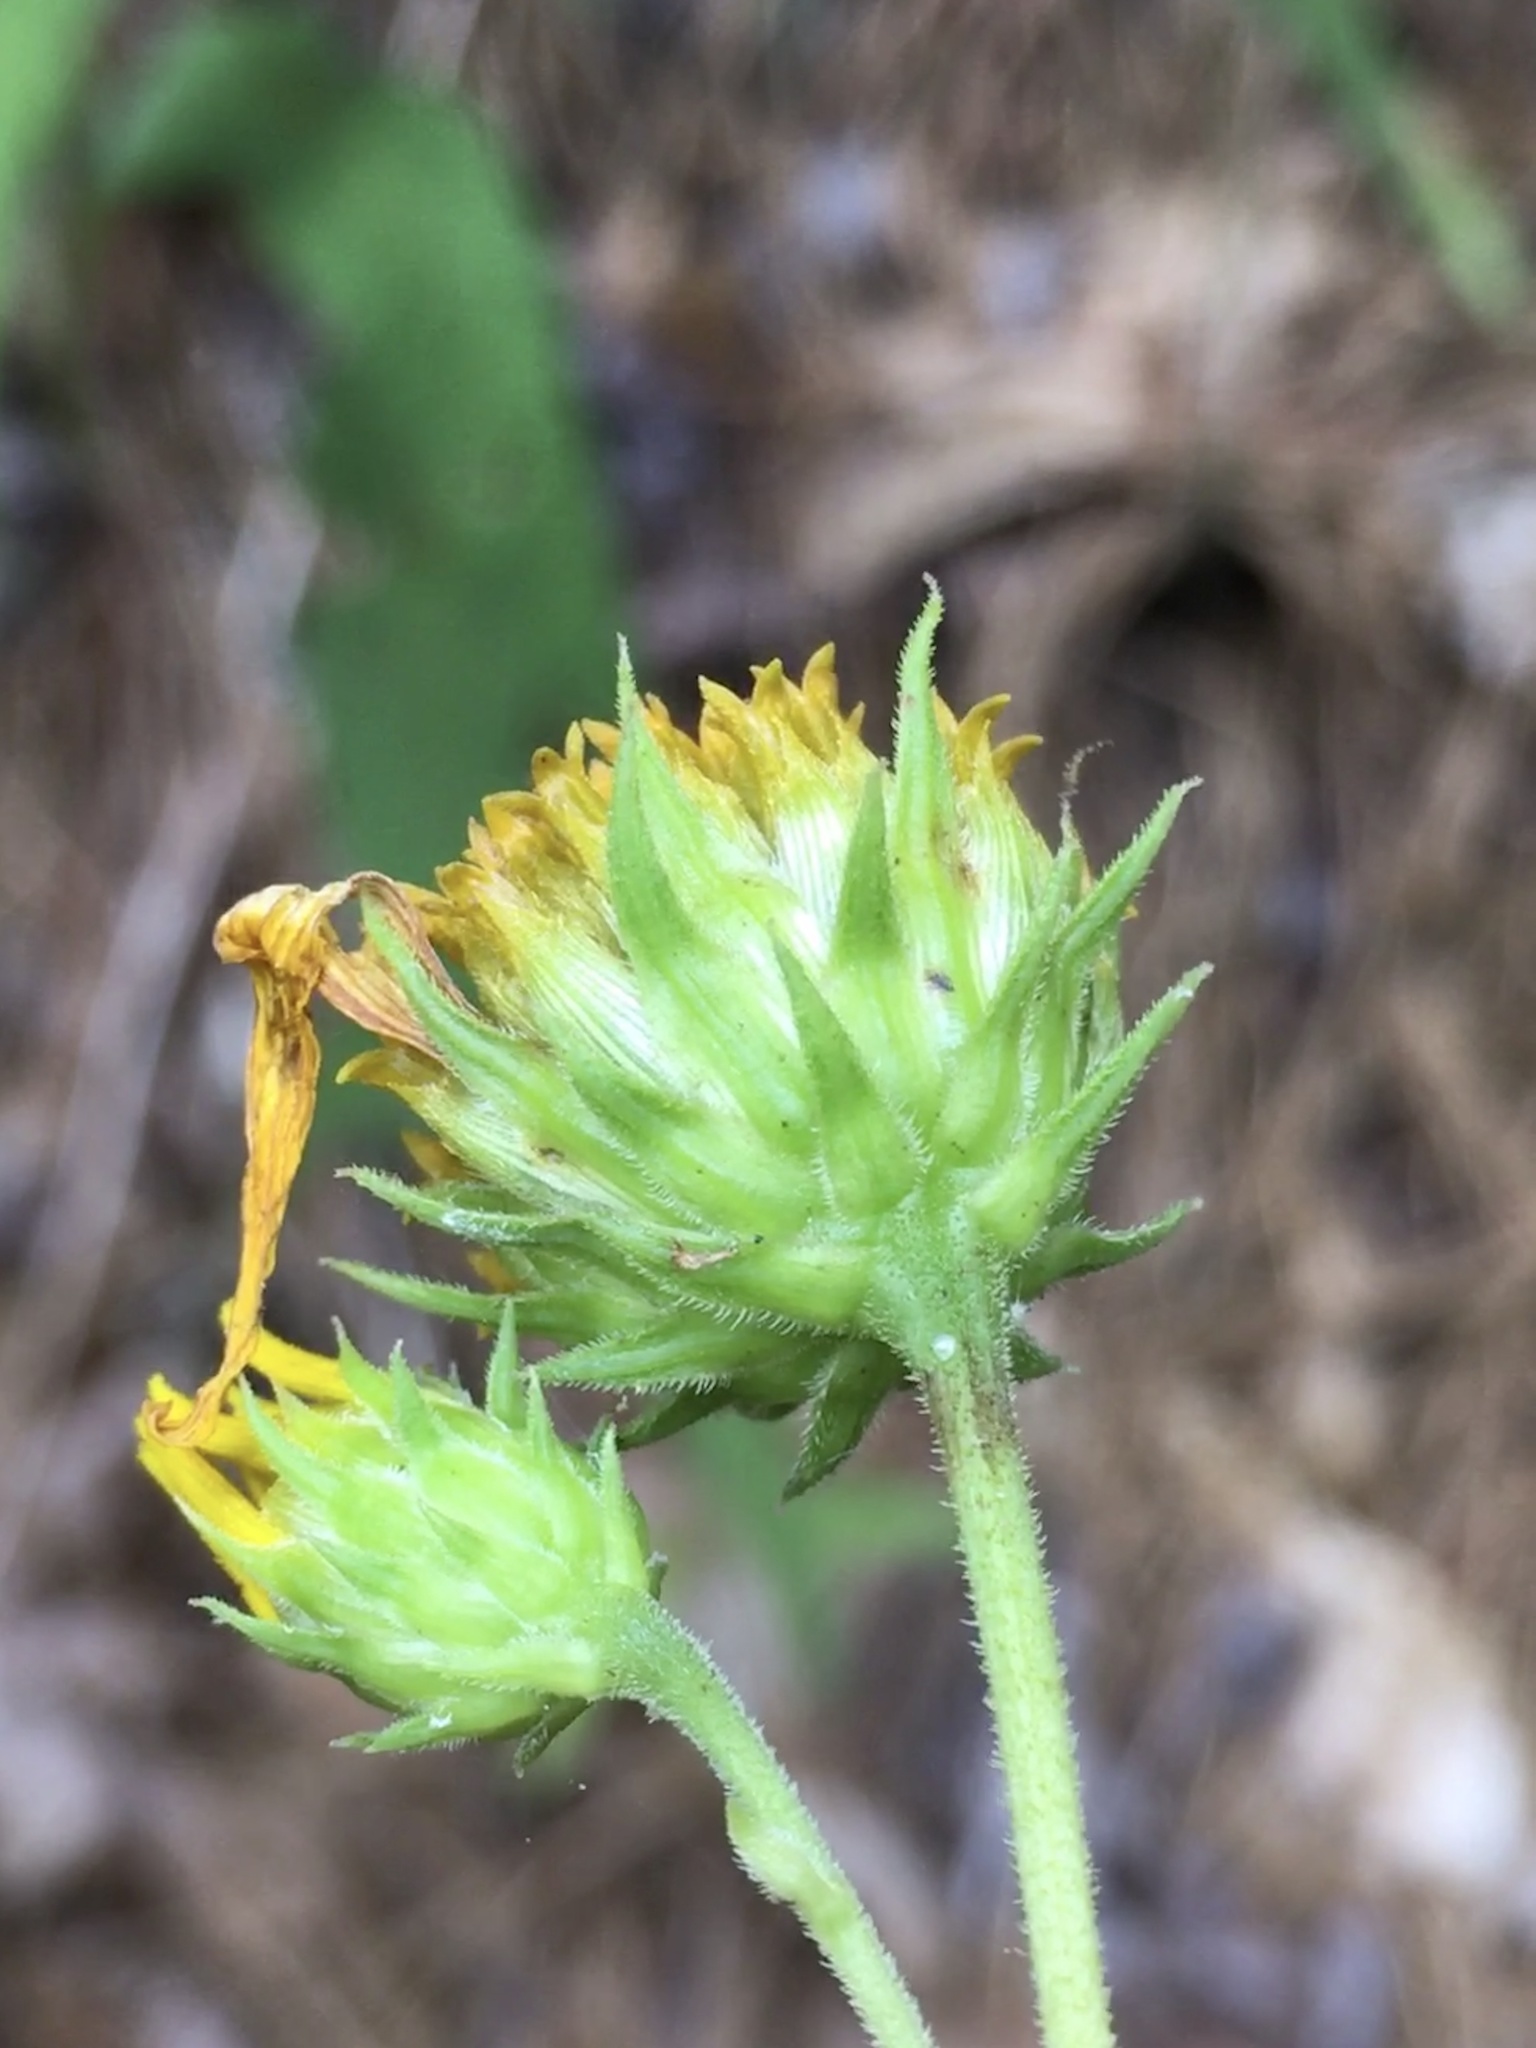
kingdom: Plantae
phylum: Tracheophyta
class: Magnoliopsida
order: Asterales
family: Asteraceae
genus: Helianthus
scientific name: Helianthus divaricatus
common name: Divergent sunflower
